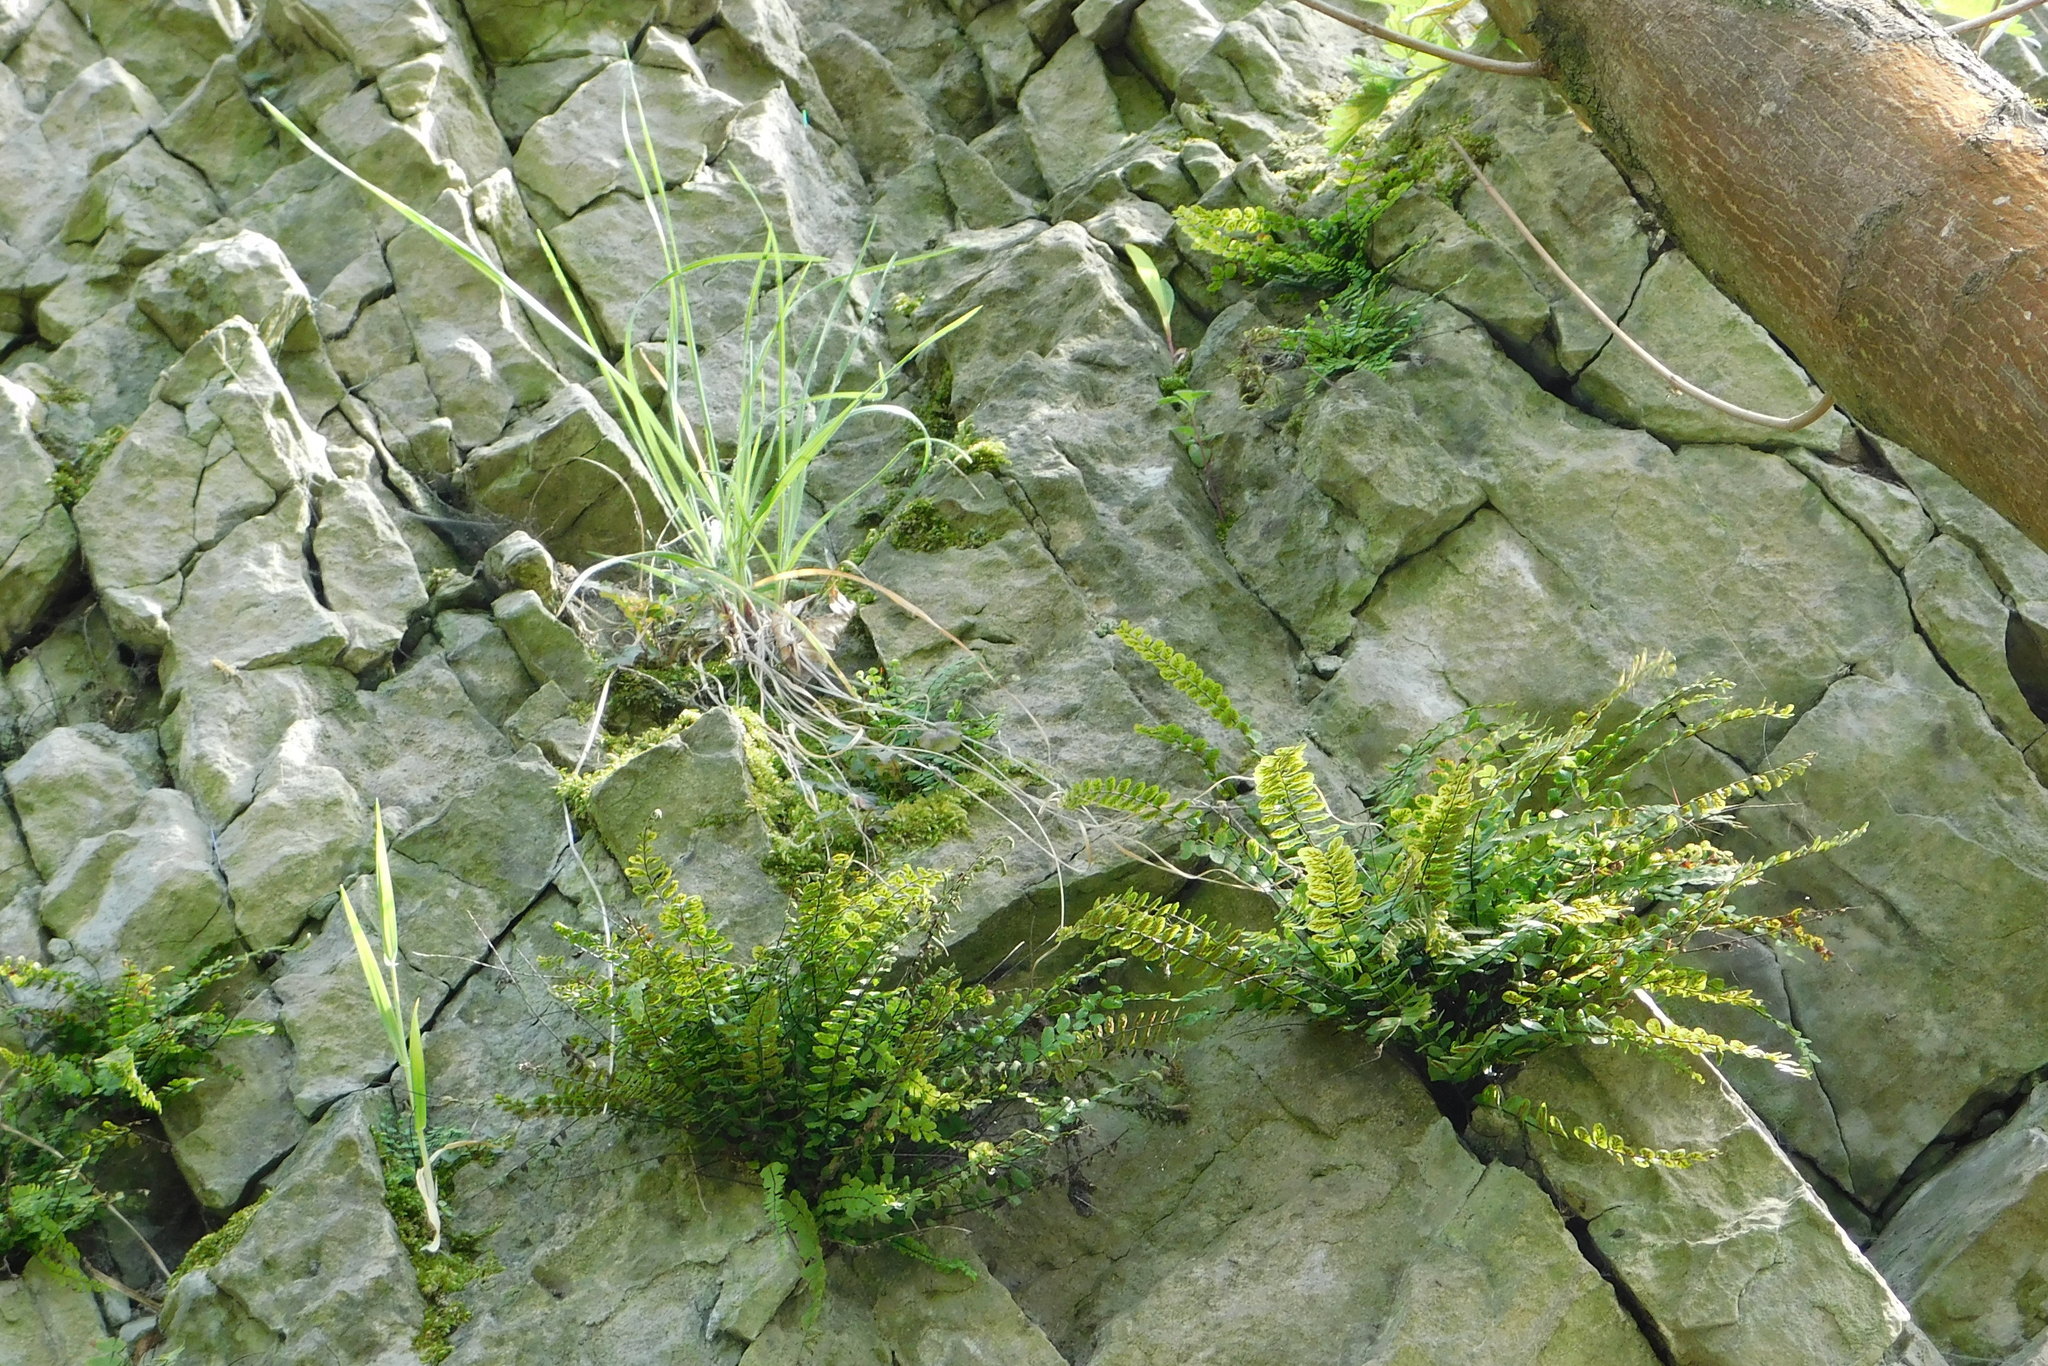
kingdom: Plantae
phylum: Tracheophyta
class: Polypodiopsida
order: Polypodiales
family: Aspleniaceae
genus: Asplenium
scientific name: Asplenium trichomanes
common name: Maidenhair spleenwort
